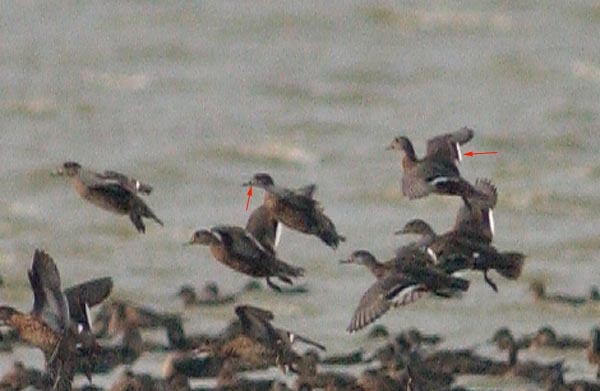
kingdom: Animalia
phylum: Chordata
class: Aves
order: Anseriformes
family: Anatidae
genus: Sibirionetta
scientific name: Sibirionetta formosa
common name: Baikal teal
